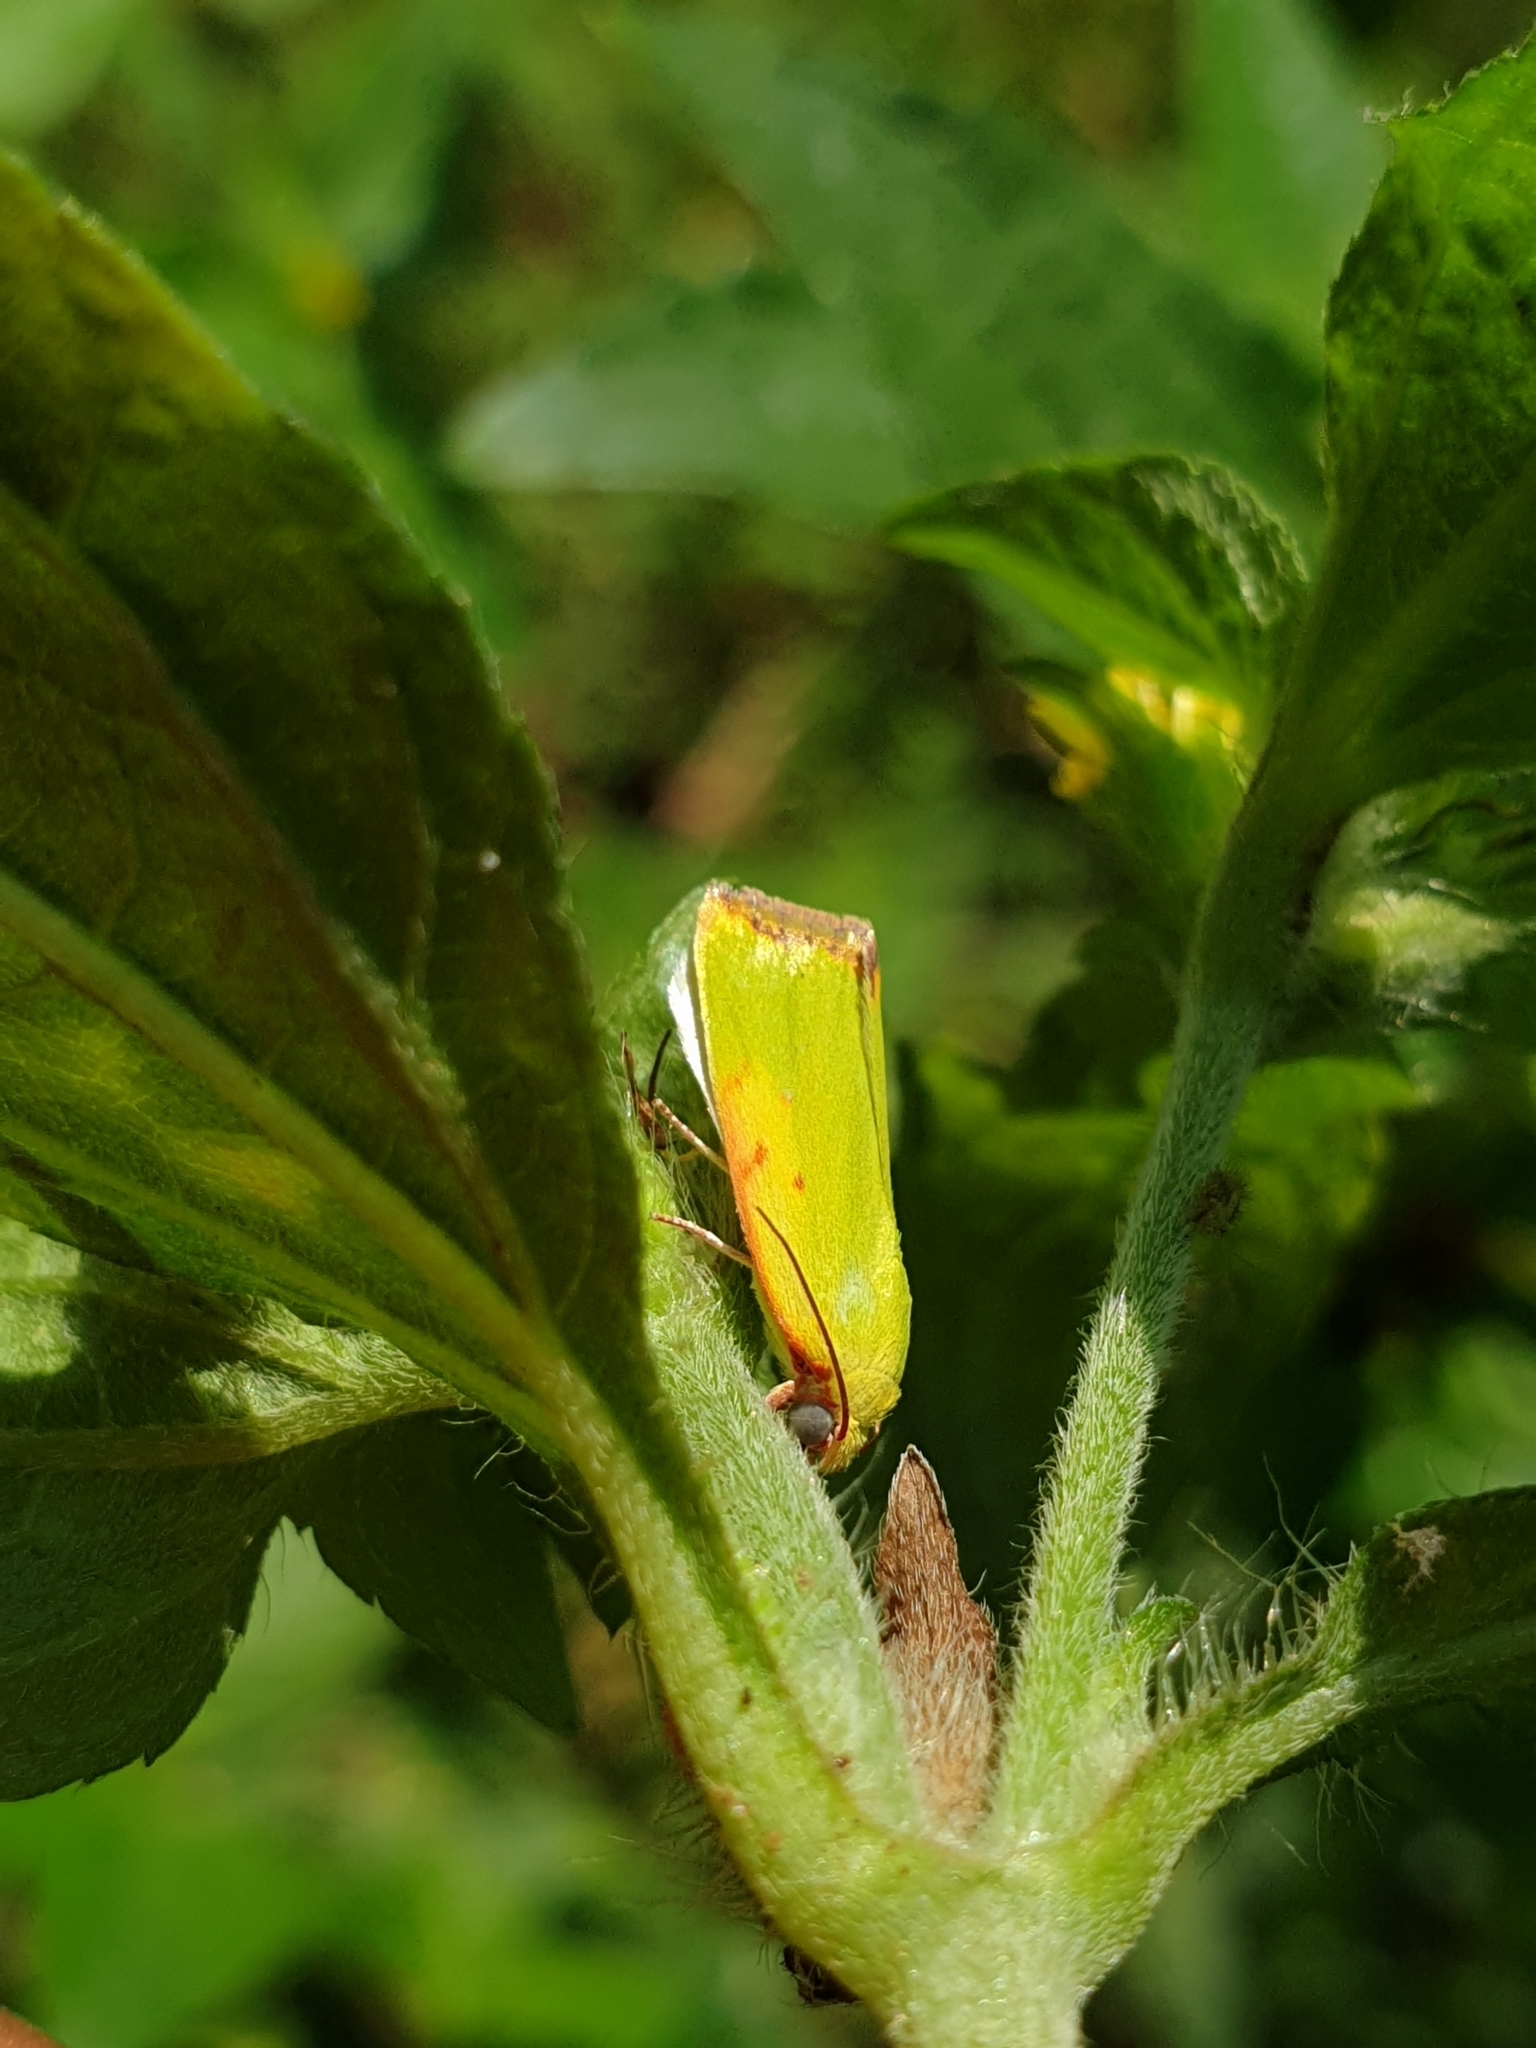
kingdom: Animalia
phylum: Arthropoda
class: Insecta
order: Lepidoptera
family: Nolidae
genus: Earias
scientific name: Earias cupreoviridis
